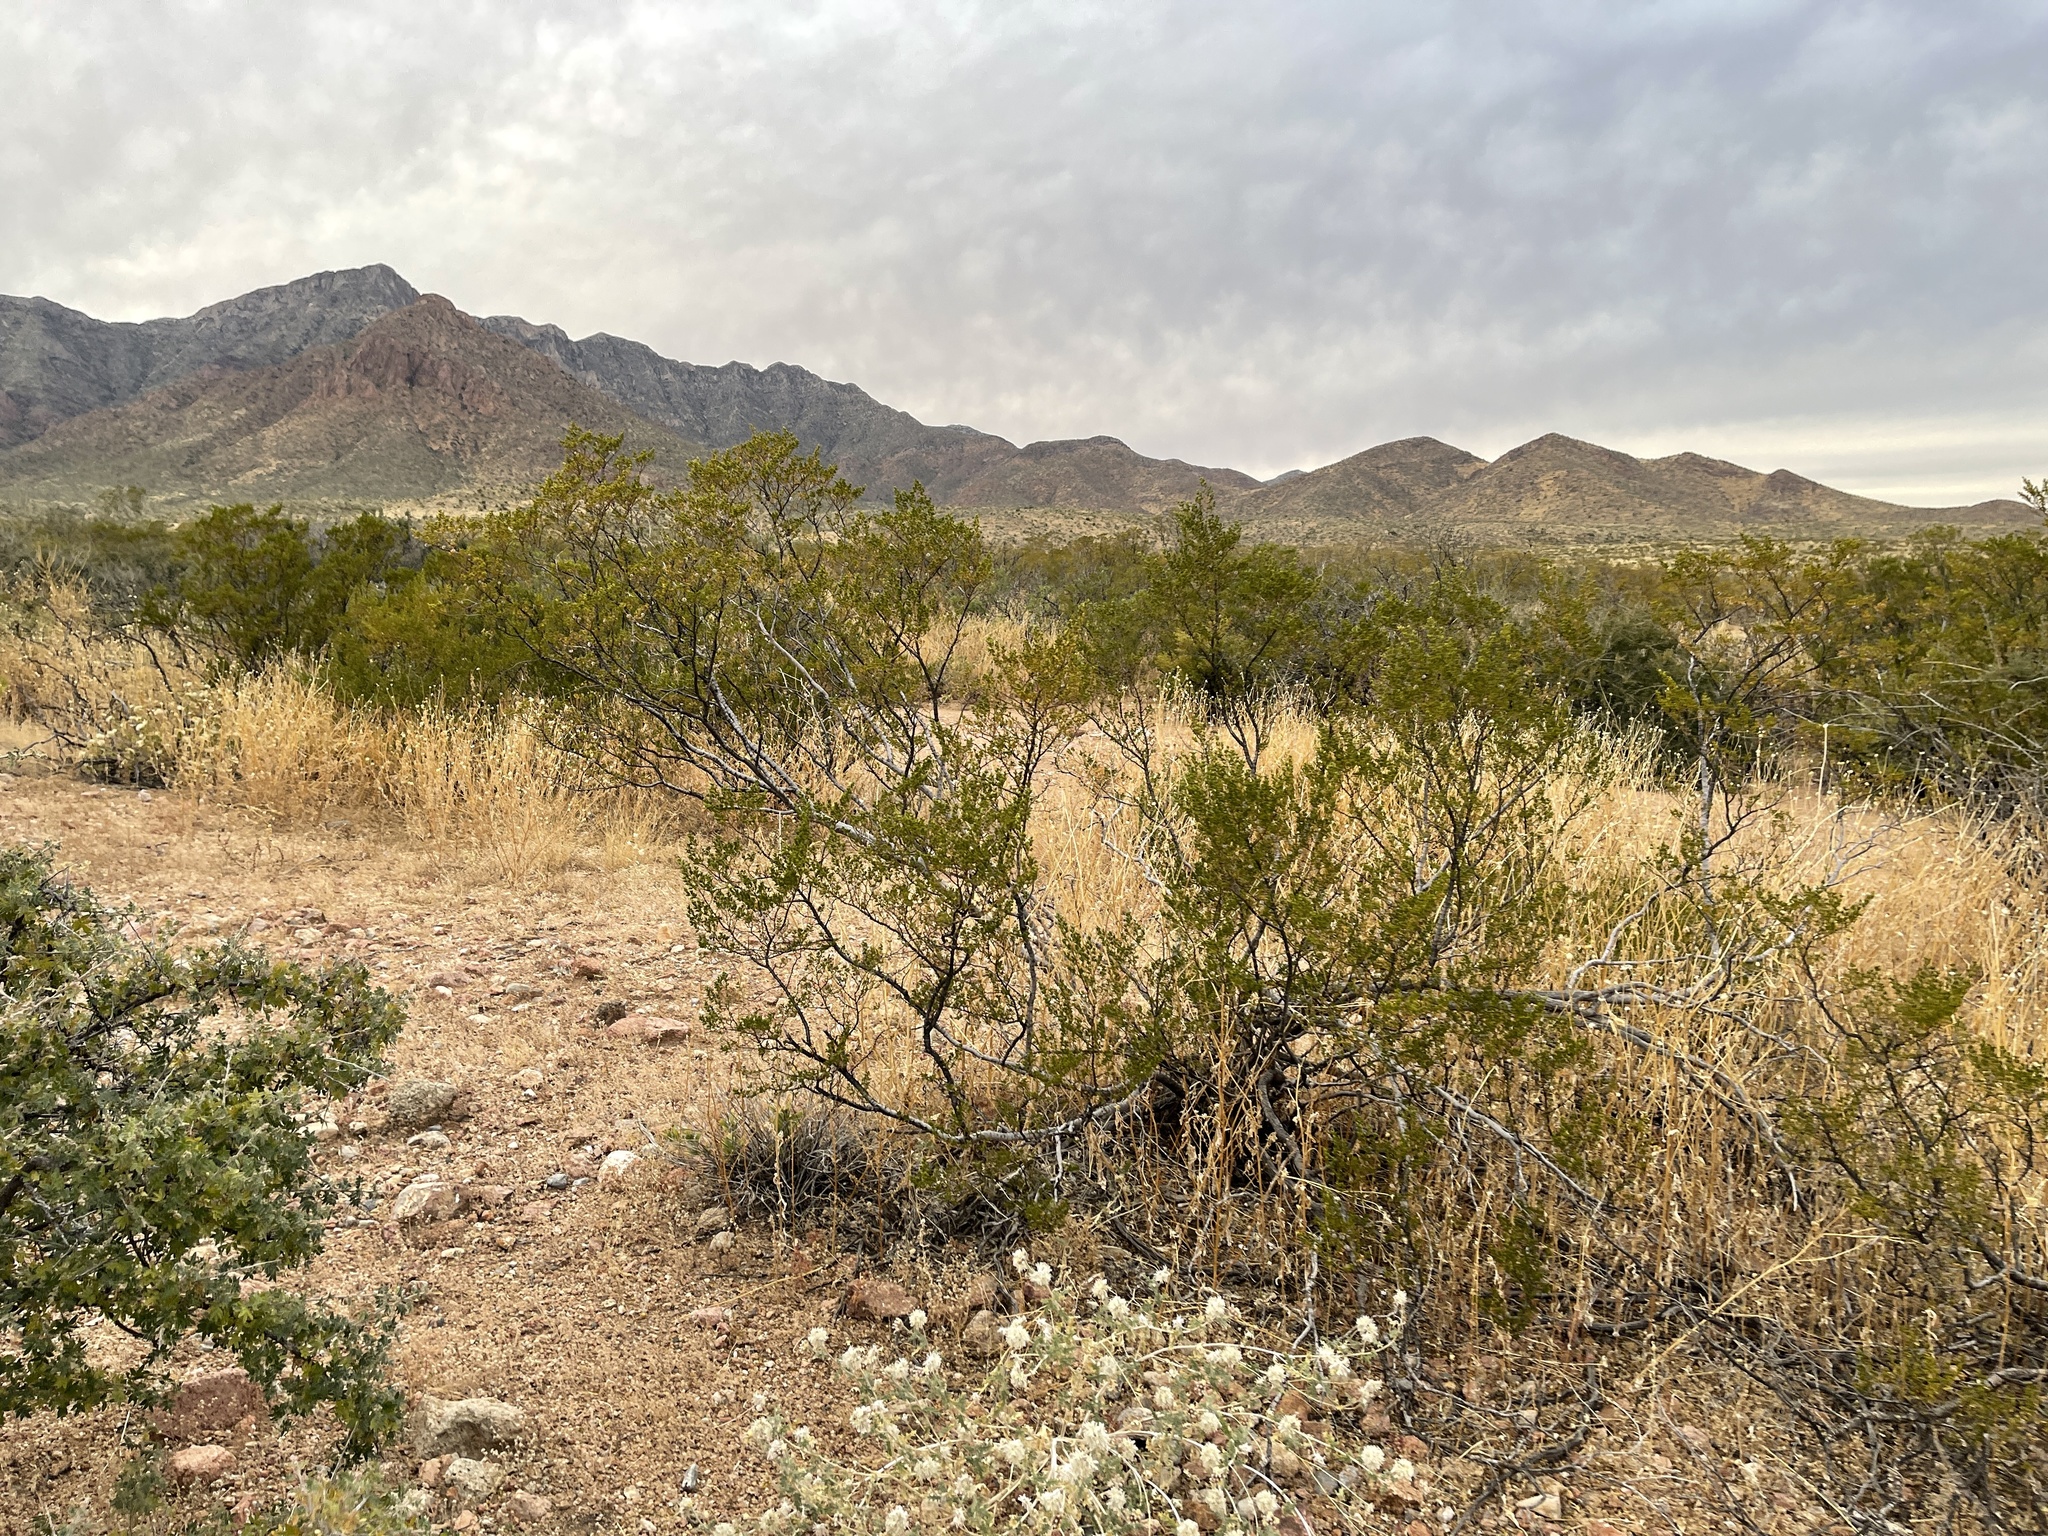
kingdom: Plantae
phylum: Tracheophyta
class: Magnoliopsida
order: Zygophyllales
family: Zygophyllaceae
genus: Larrea
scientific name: Larrea tridentata
